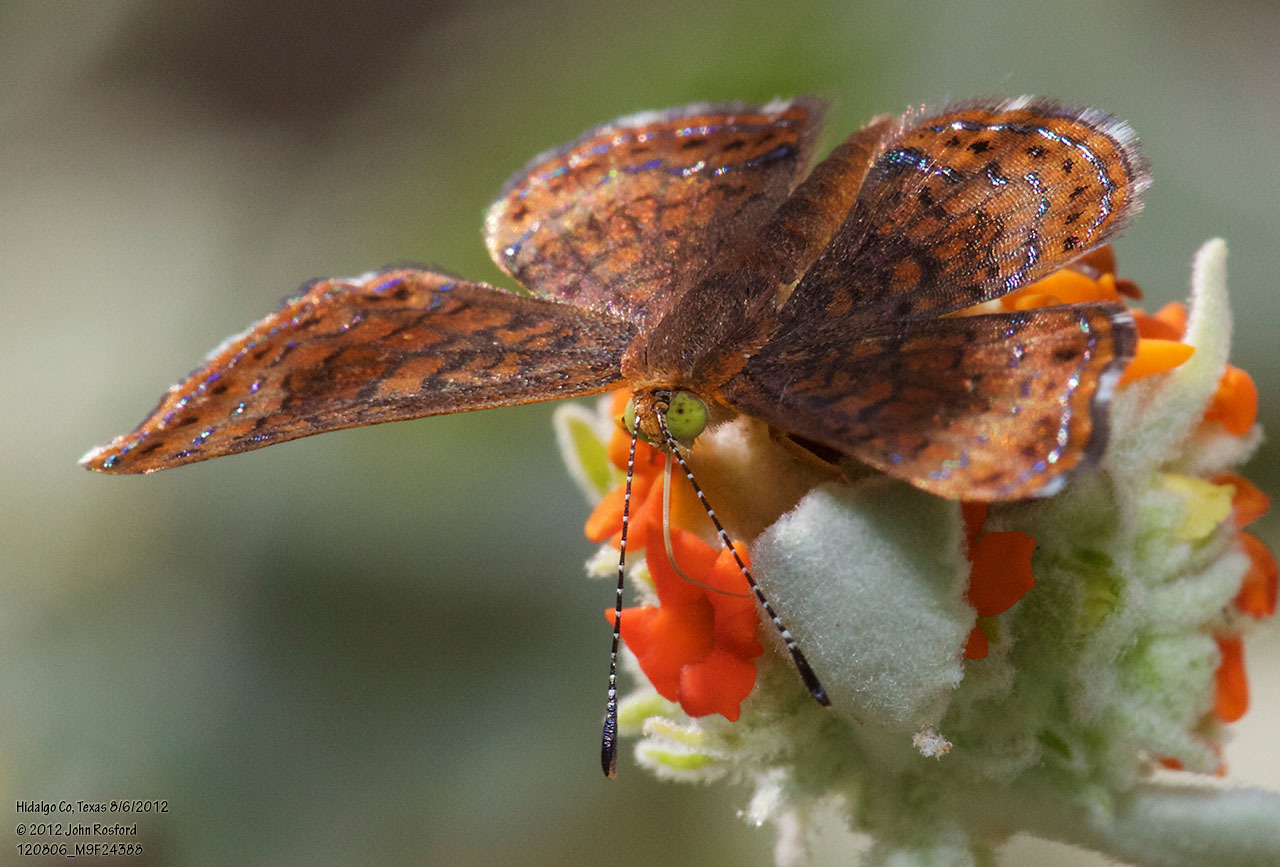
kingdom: Animalia
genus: Calephelis
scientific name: Calephelis nemesis
